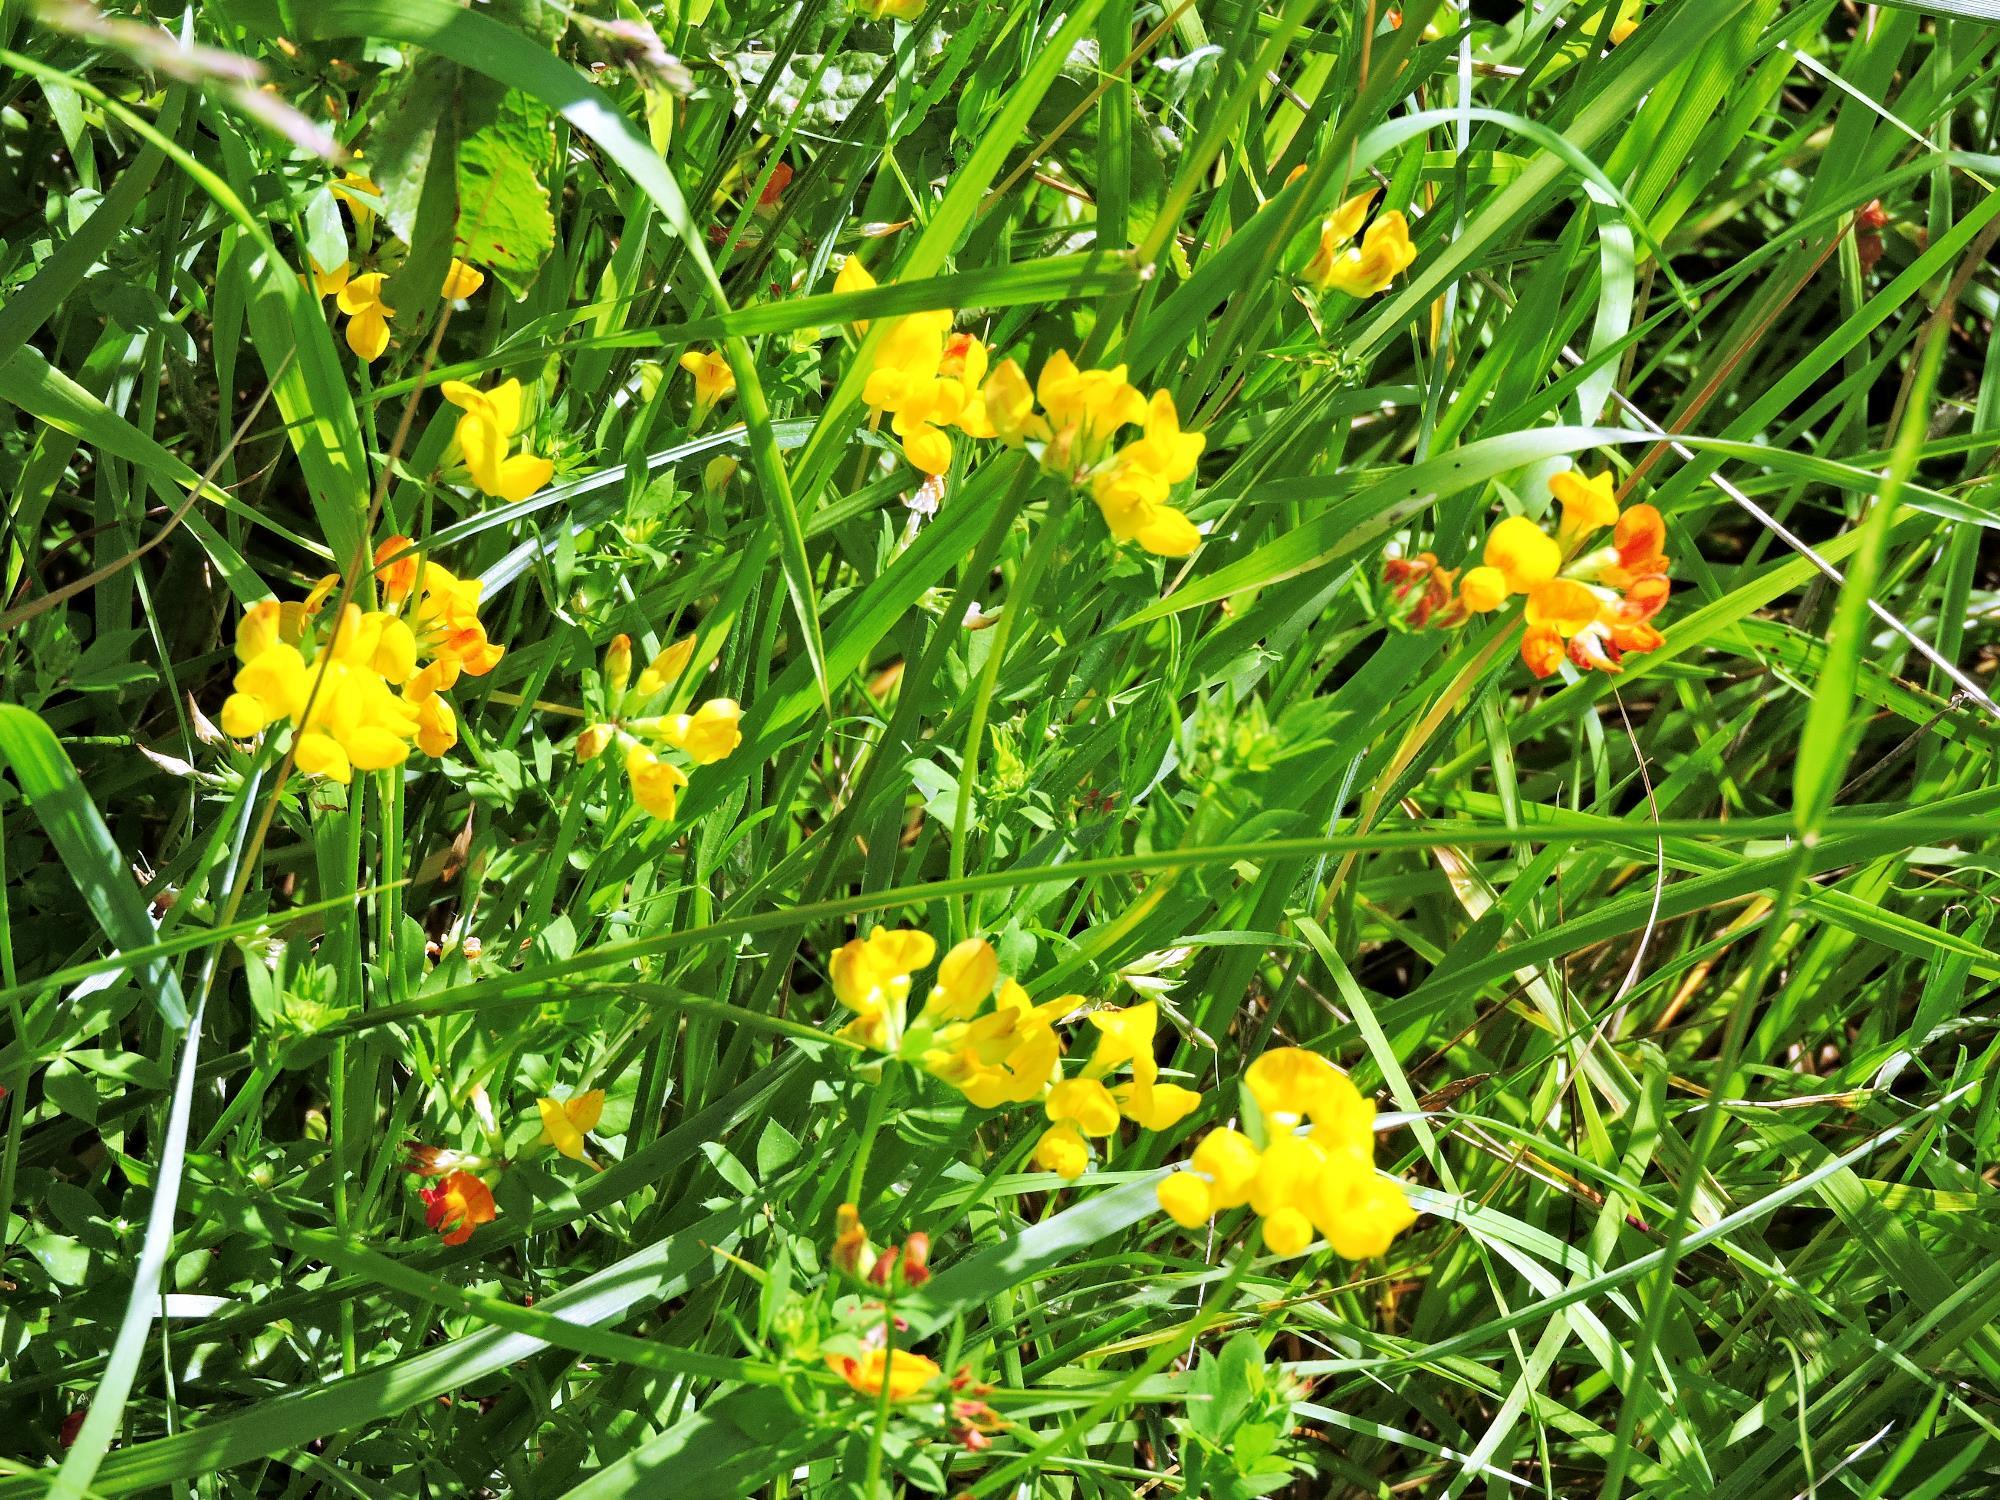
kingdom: Plantae
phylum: Tracheophyta
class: Magnoliopsida
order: Fabales
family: Fabaceae
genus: Lotus
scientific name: Lotus pedunculatus
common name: Greater birdsfoot-trefoil
